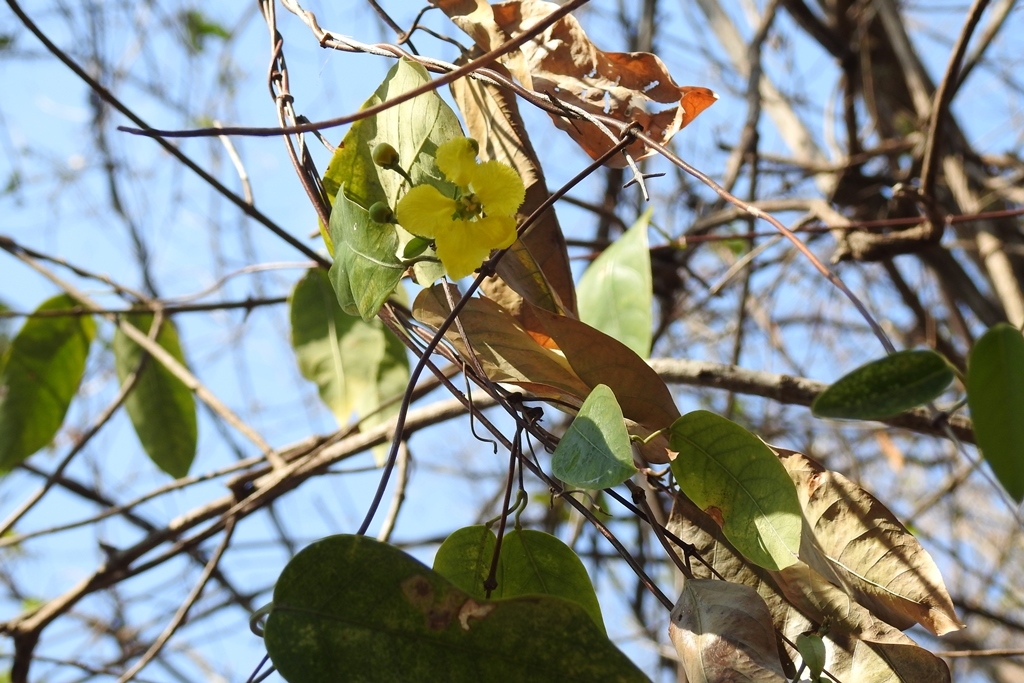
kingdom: Plantae
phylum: Tracheophyta
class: Magnoliopsida
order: Malpighiales
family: Malpighiaceae
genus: Stigmaphyllon
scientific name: Stigmaphyllon ellipticum
